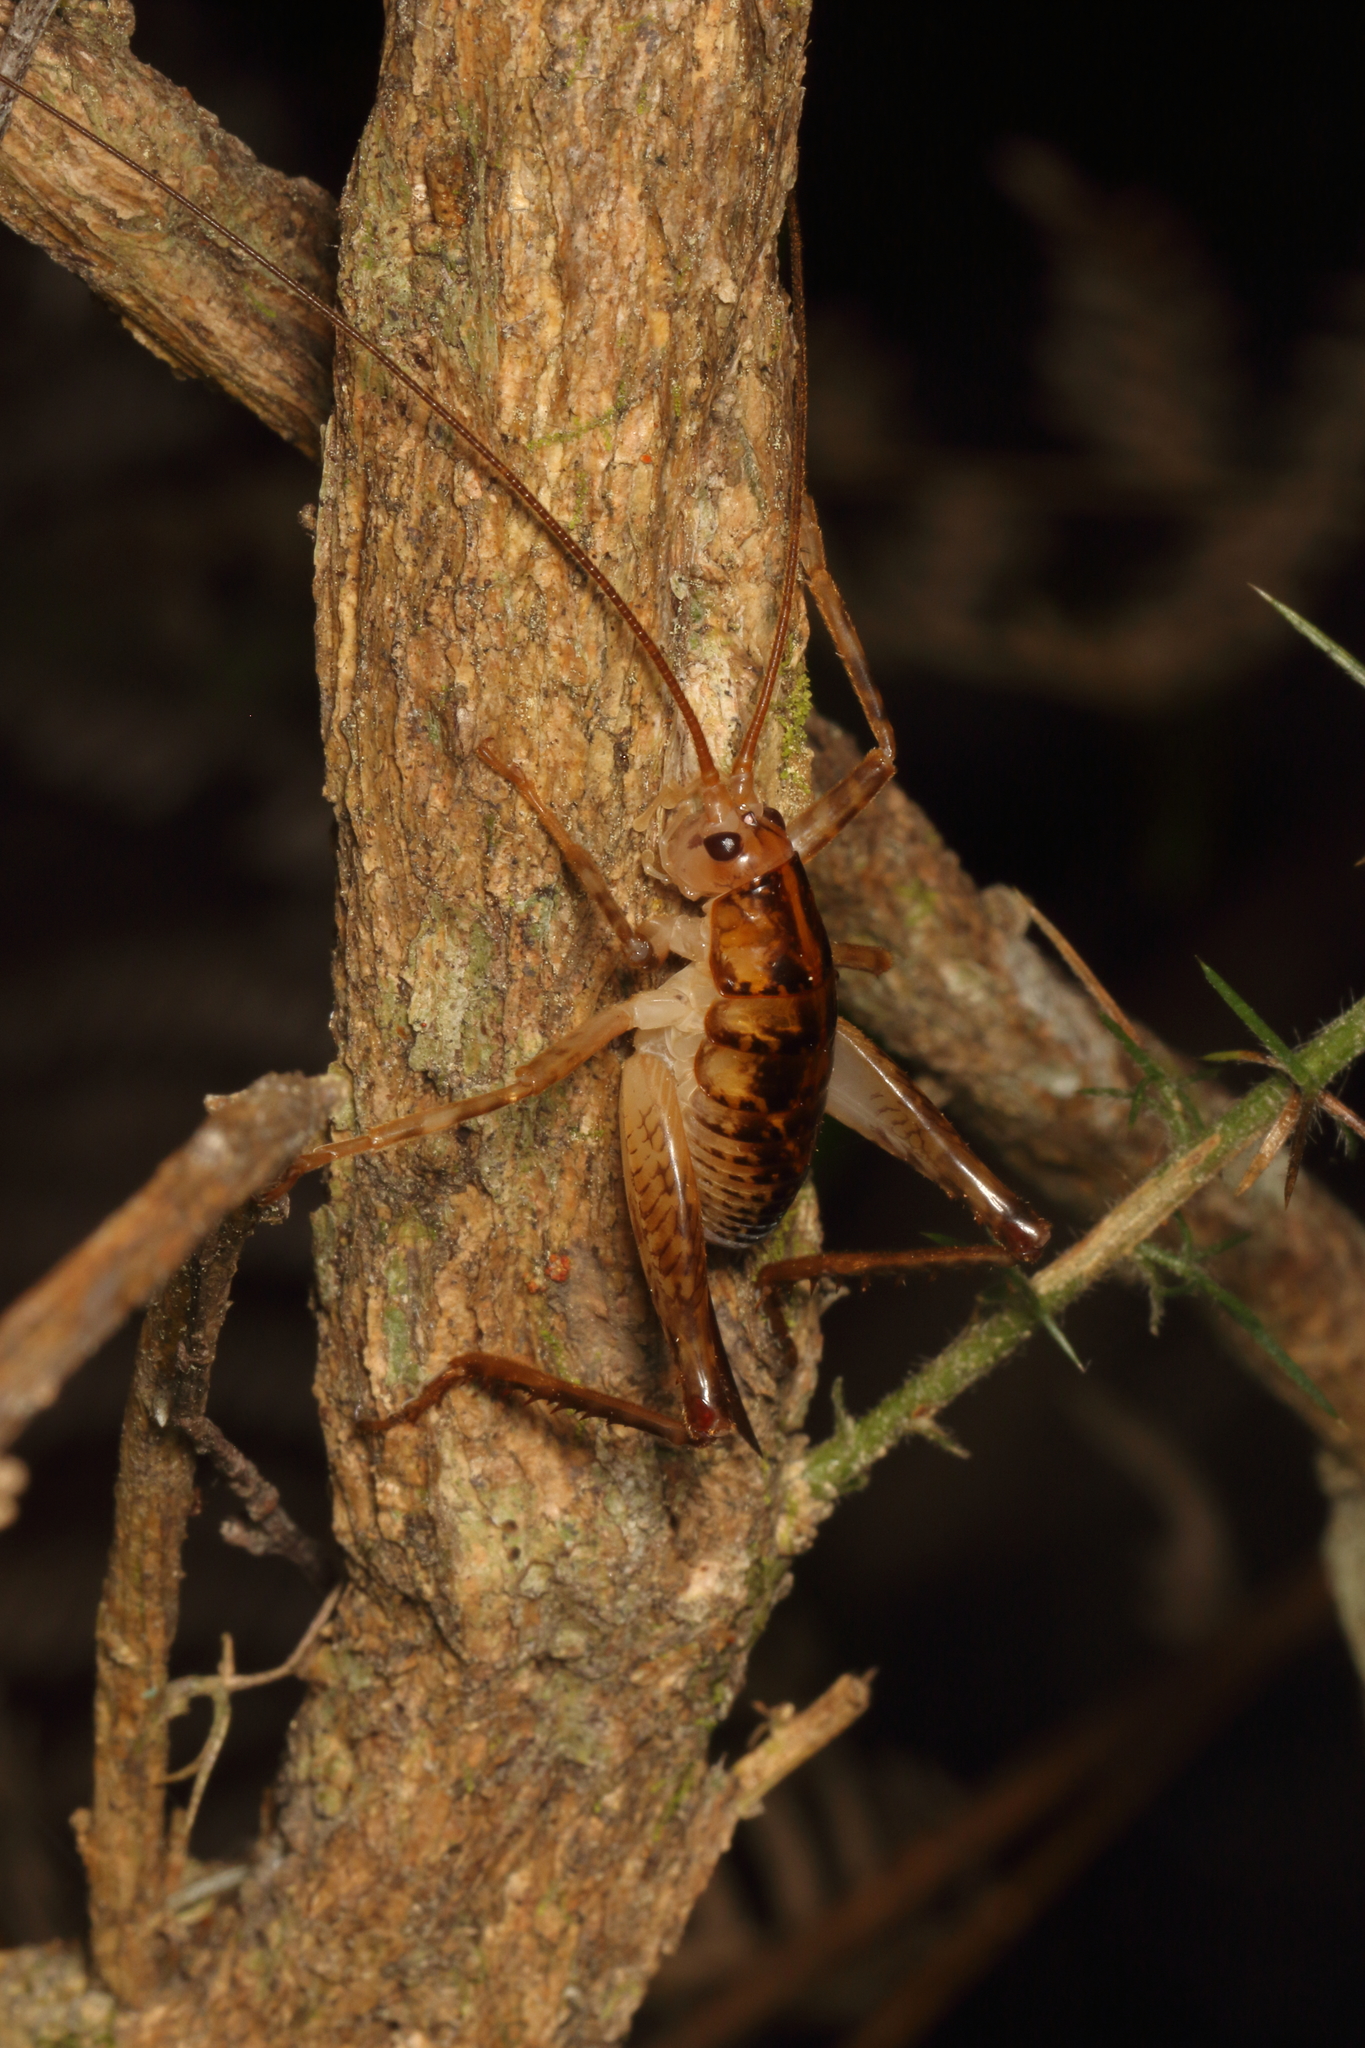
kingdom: Animalia
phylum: Arthropoda
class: Insecta
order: Orthoptera
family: Rhaphidophoridae
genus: Talitropsis
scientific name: Talitropsis sedilloti
